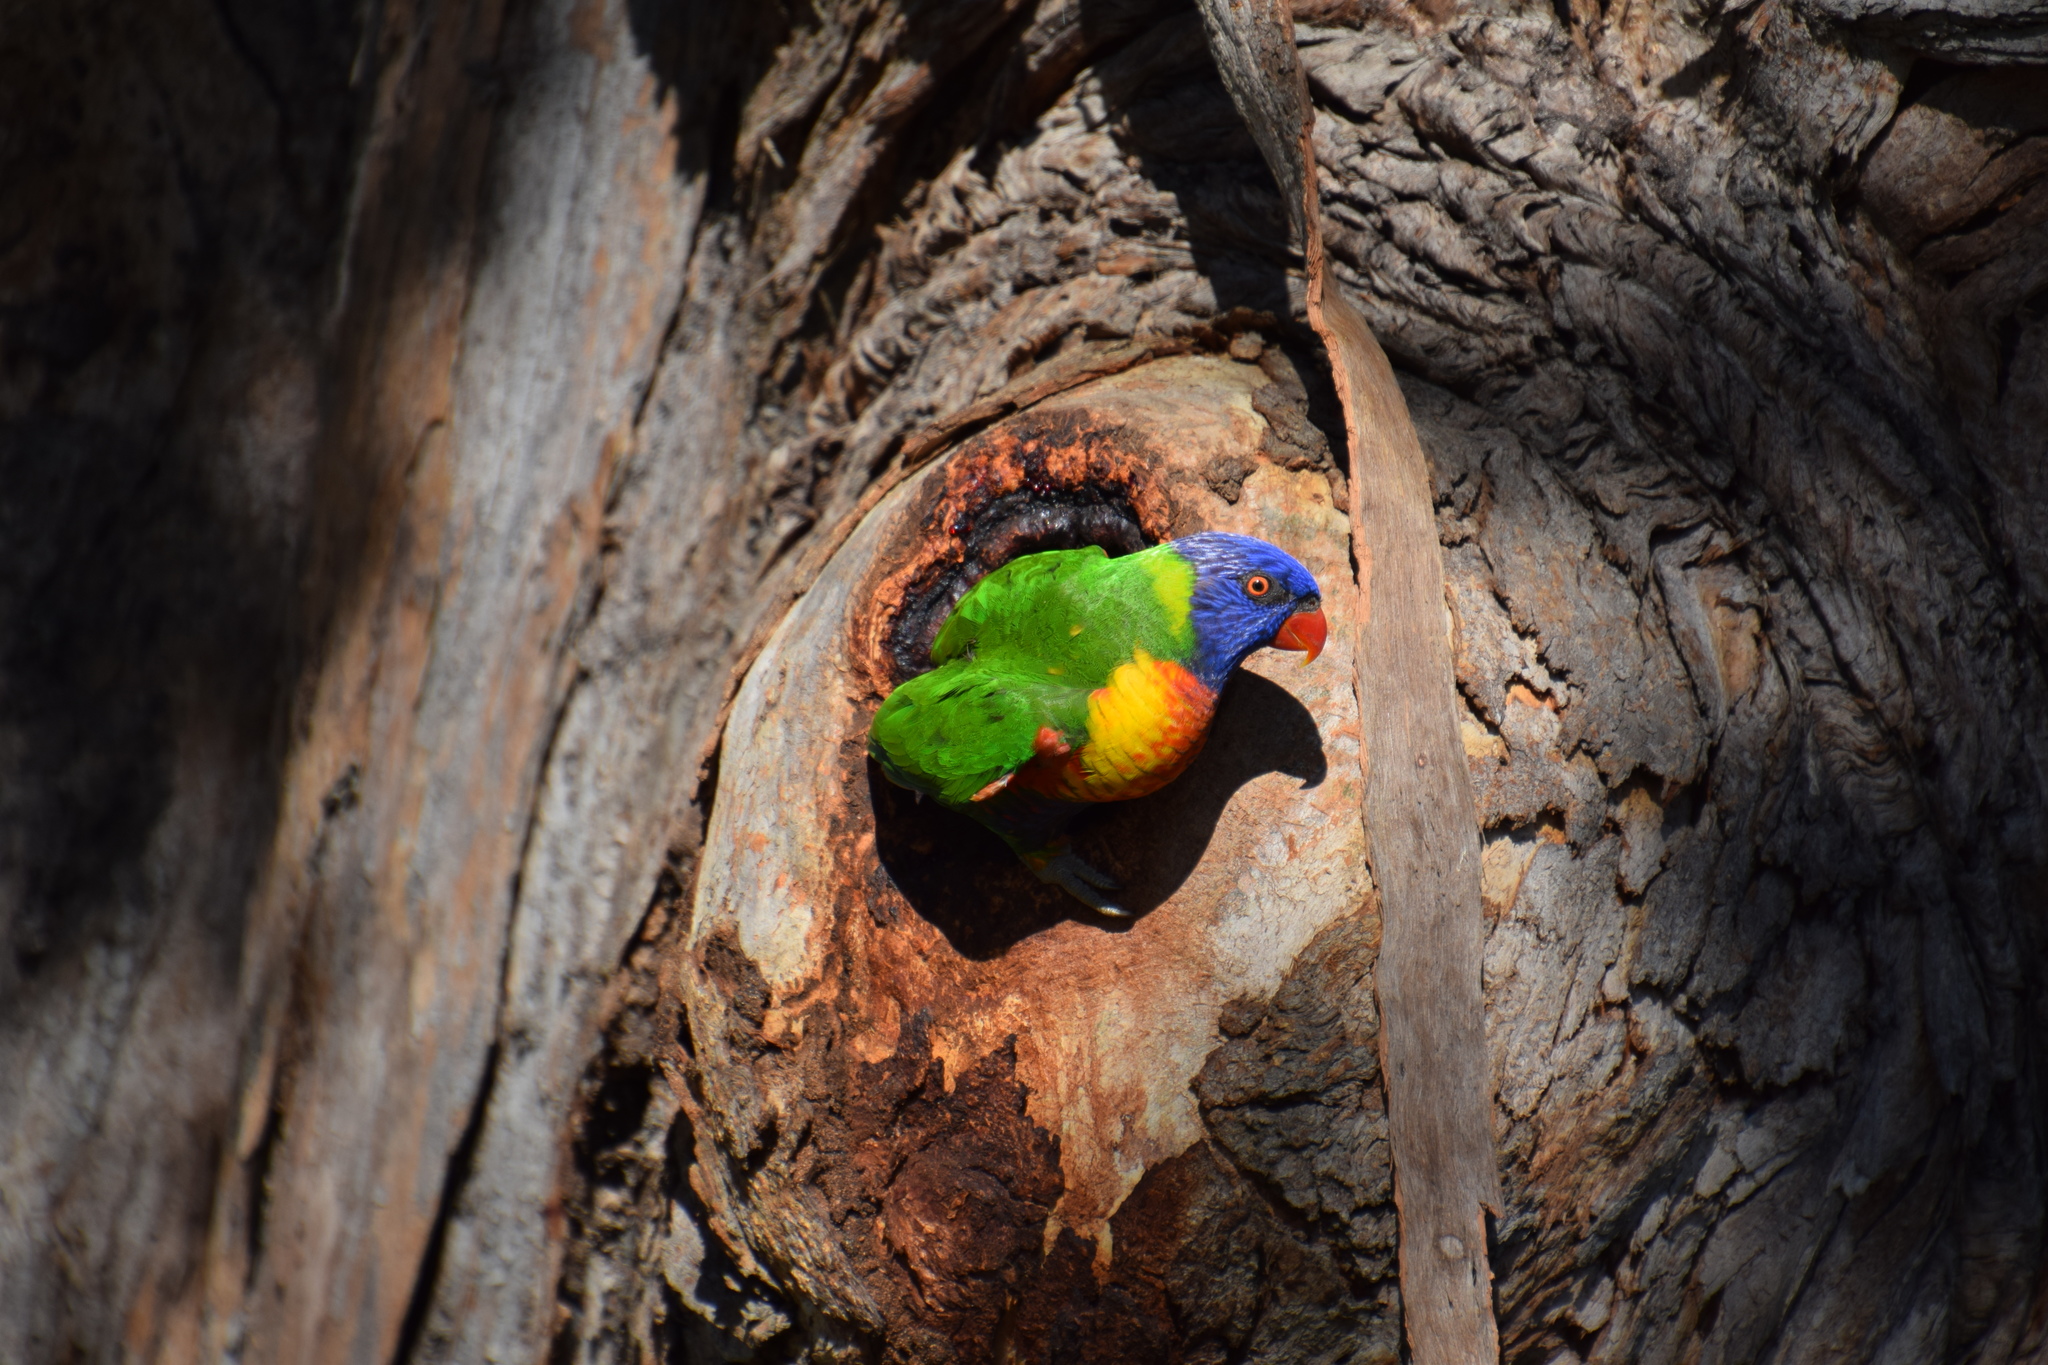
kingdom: Animalia
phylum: Chordata
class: Aves
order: Psittaciformes
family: Psittacidae
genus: Trichoglossus
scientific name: Trichoglossus haematodus
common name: Coconut lorikeet
